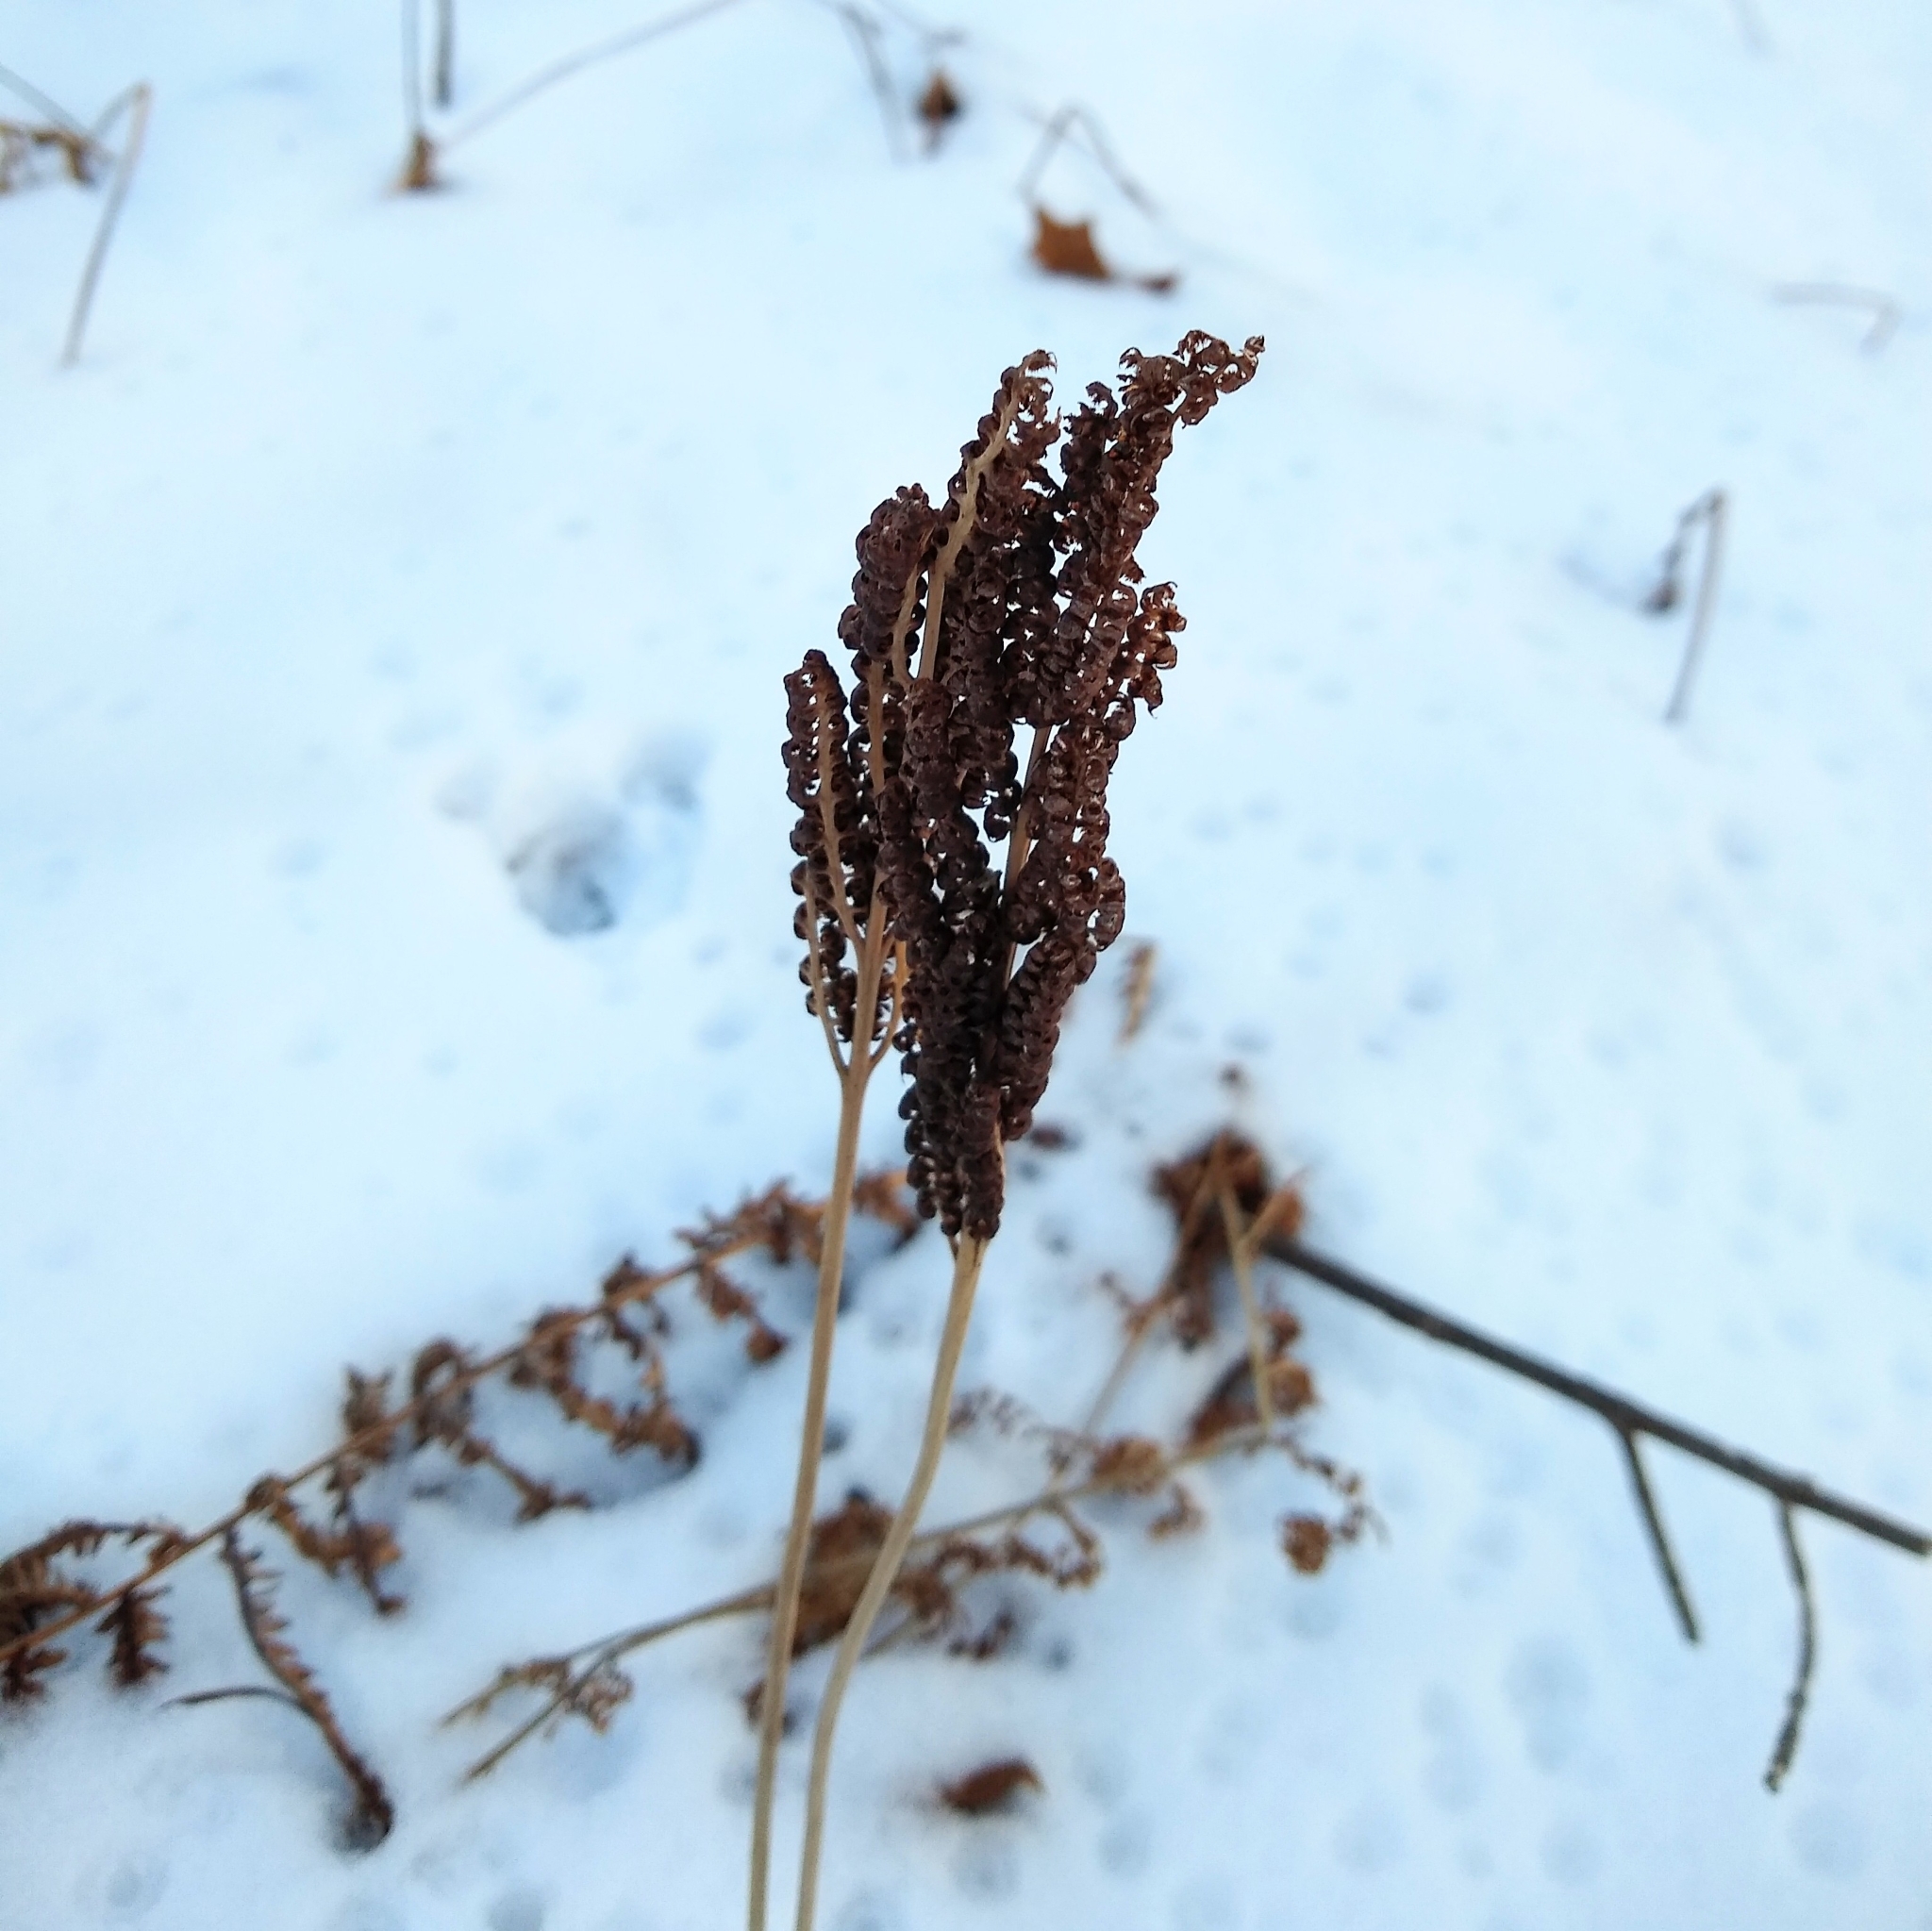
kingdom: Plantae
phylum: Tracheophyta
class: Polypodiopsida
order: Polypodiales
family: Onocleaceae
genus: Onoclea
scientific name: Onoclea sensibilis
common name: Sensitive fern
